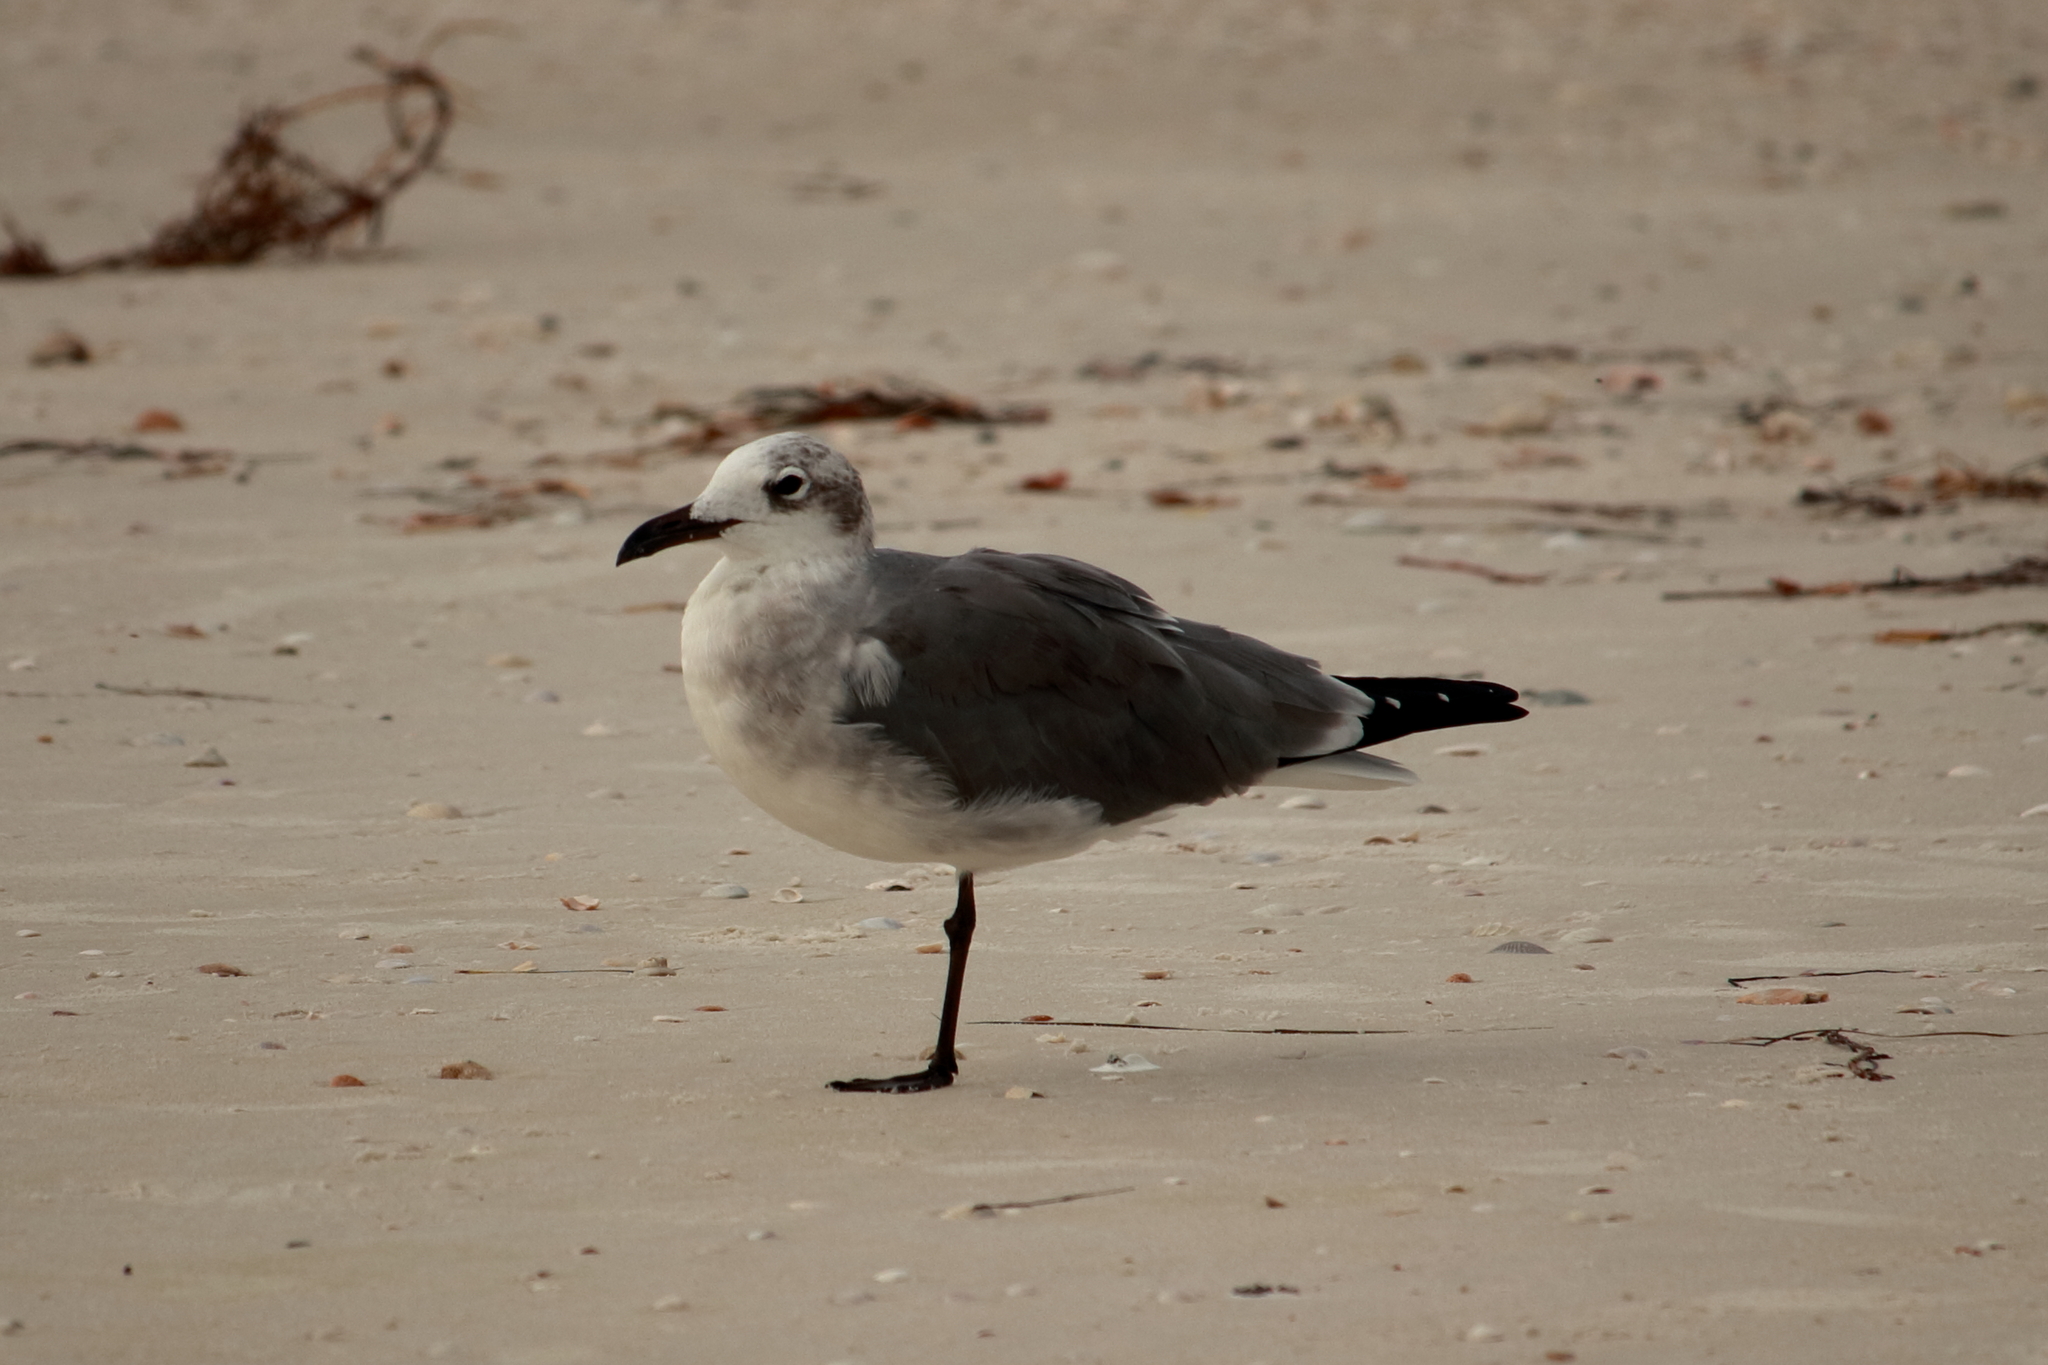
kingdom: Animalia
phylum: Chordata
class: Aves
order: Charadriiformes
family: Laridae
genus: Leucophaeus
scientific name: Leucophaeus atricilla
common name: Laughing gull
